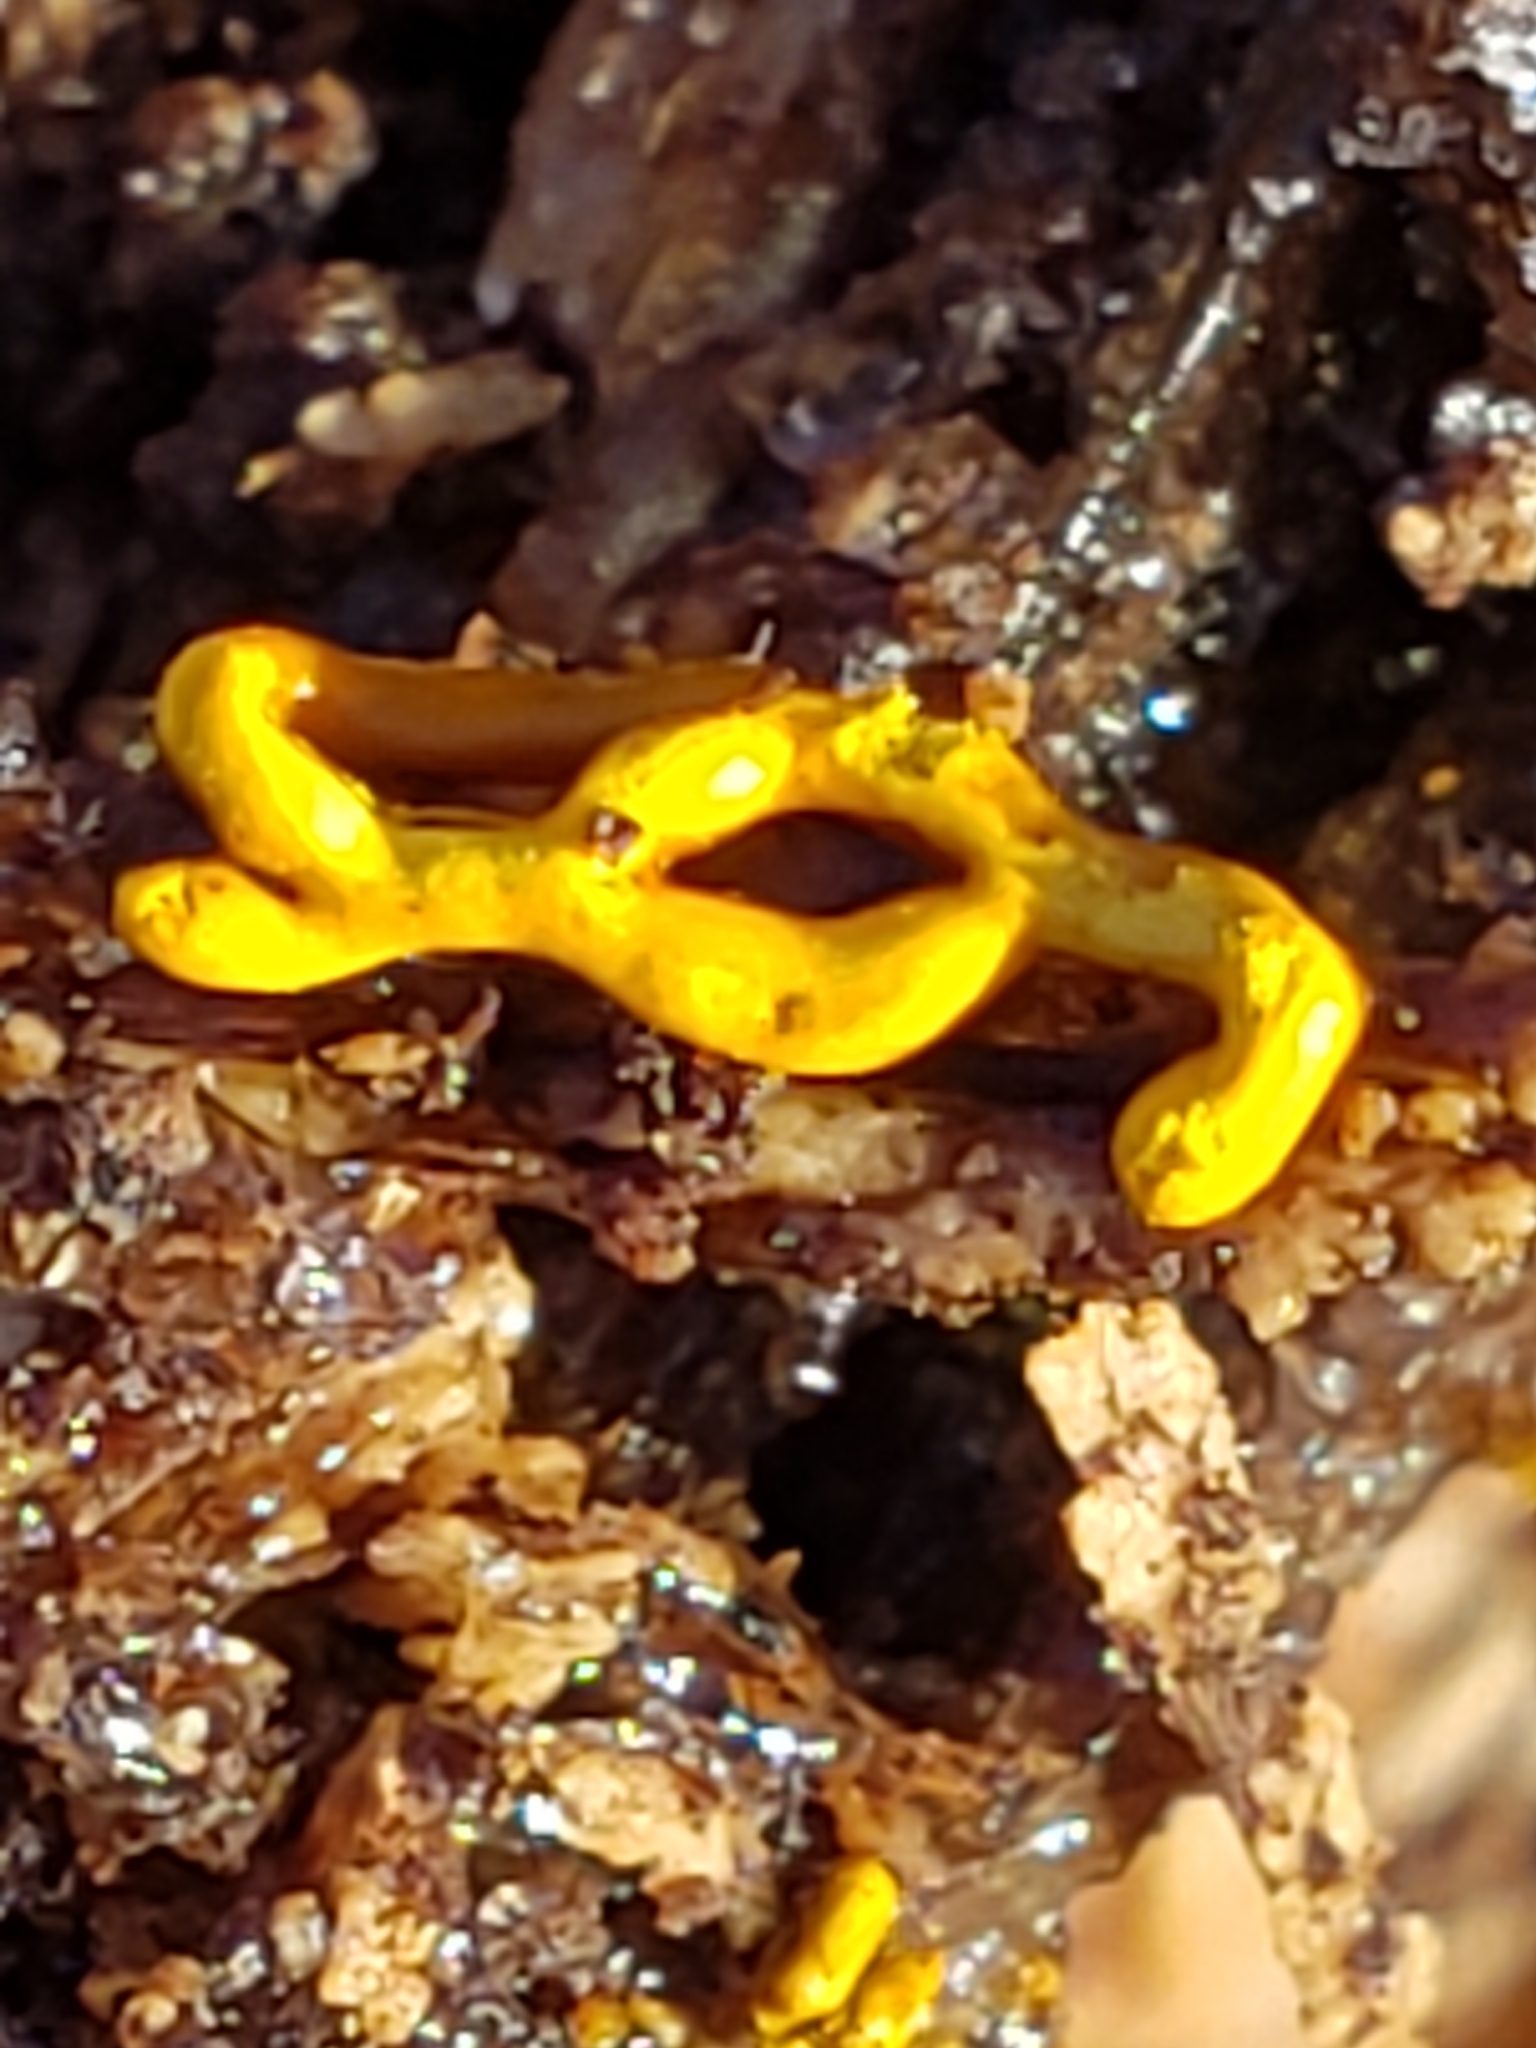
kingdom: Protozoa
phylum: Mycetozoa
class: Myxomycetes
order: Trichiales
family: Arcyriaceae
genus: Hemitrichia
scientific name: Hemitrichia serpula
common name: Pretzel slime mold
